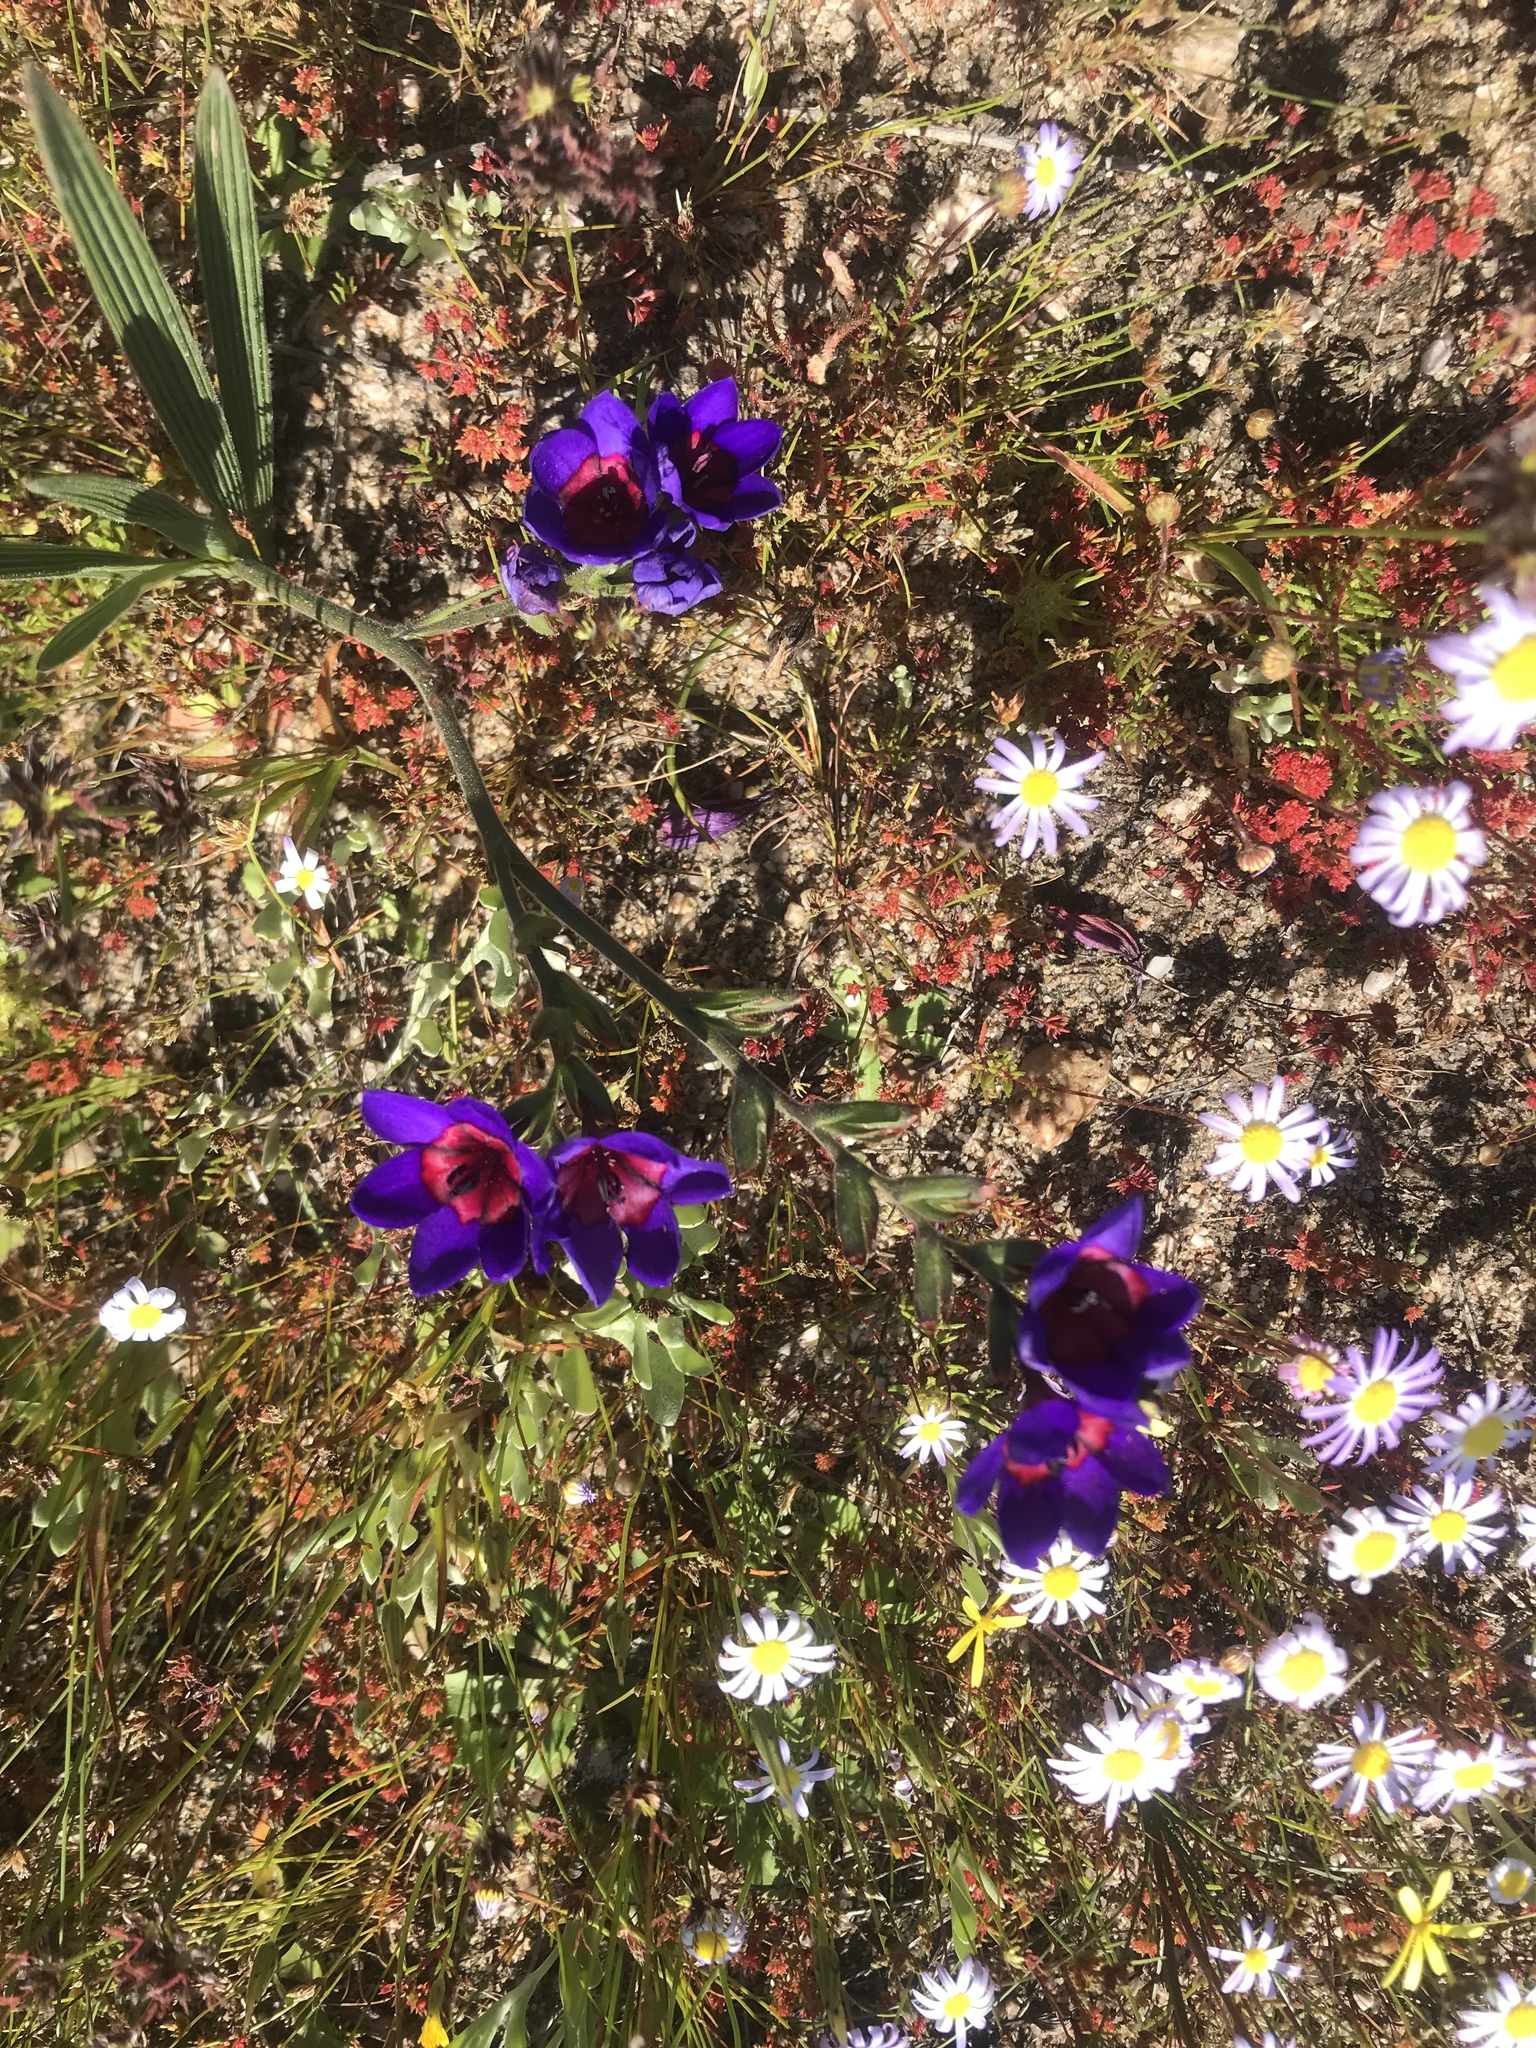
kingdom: Plantae
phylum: Tracheophyta
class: Liliopsida
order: Asparagales
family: Iridaceae
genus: Babiana
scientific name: Babiana regia
